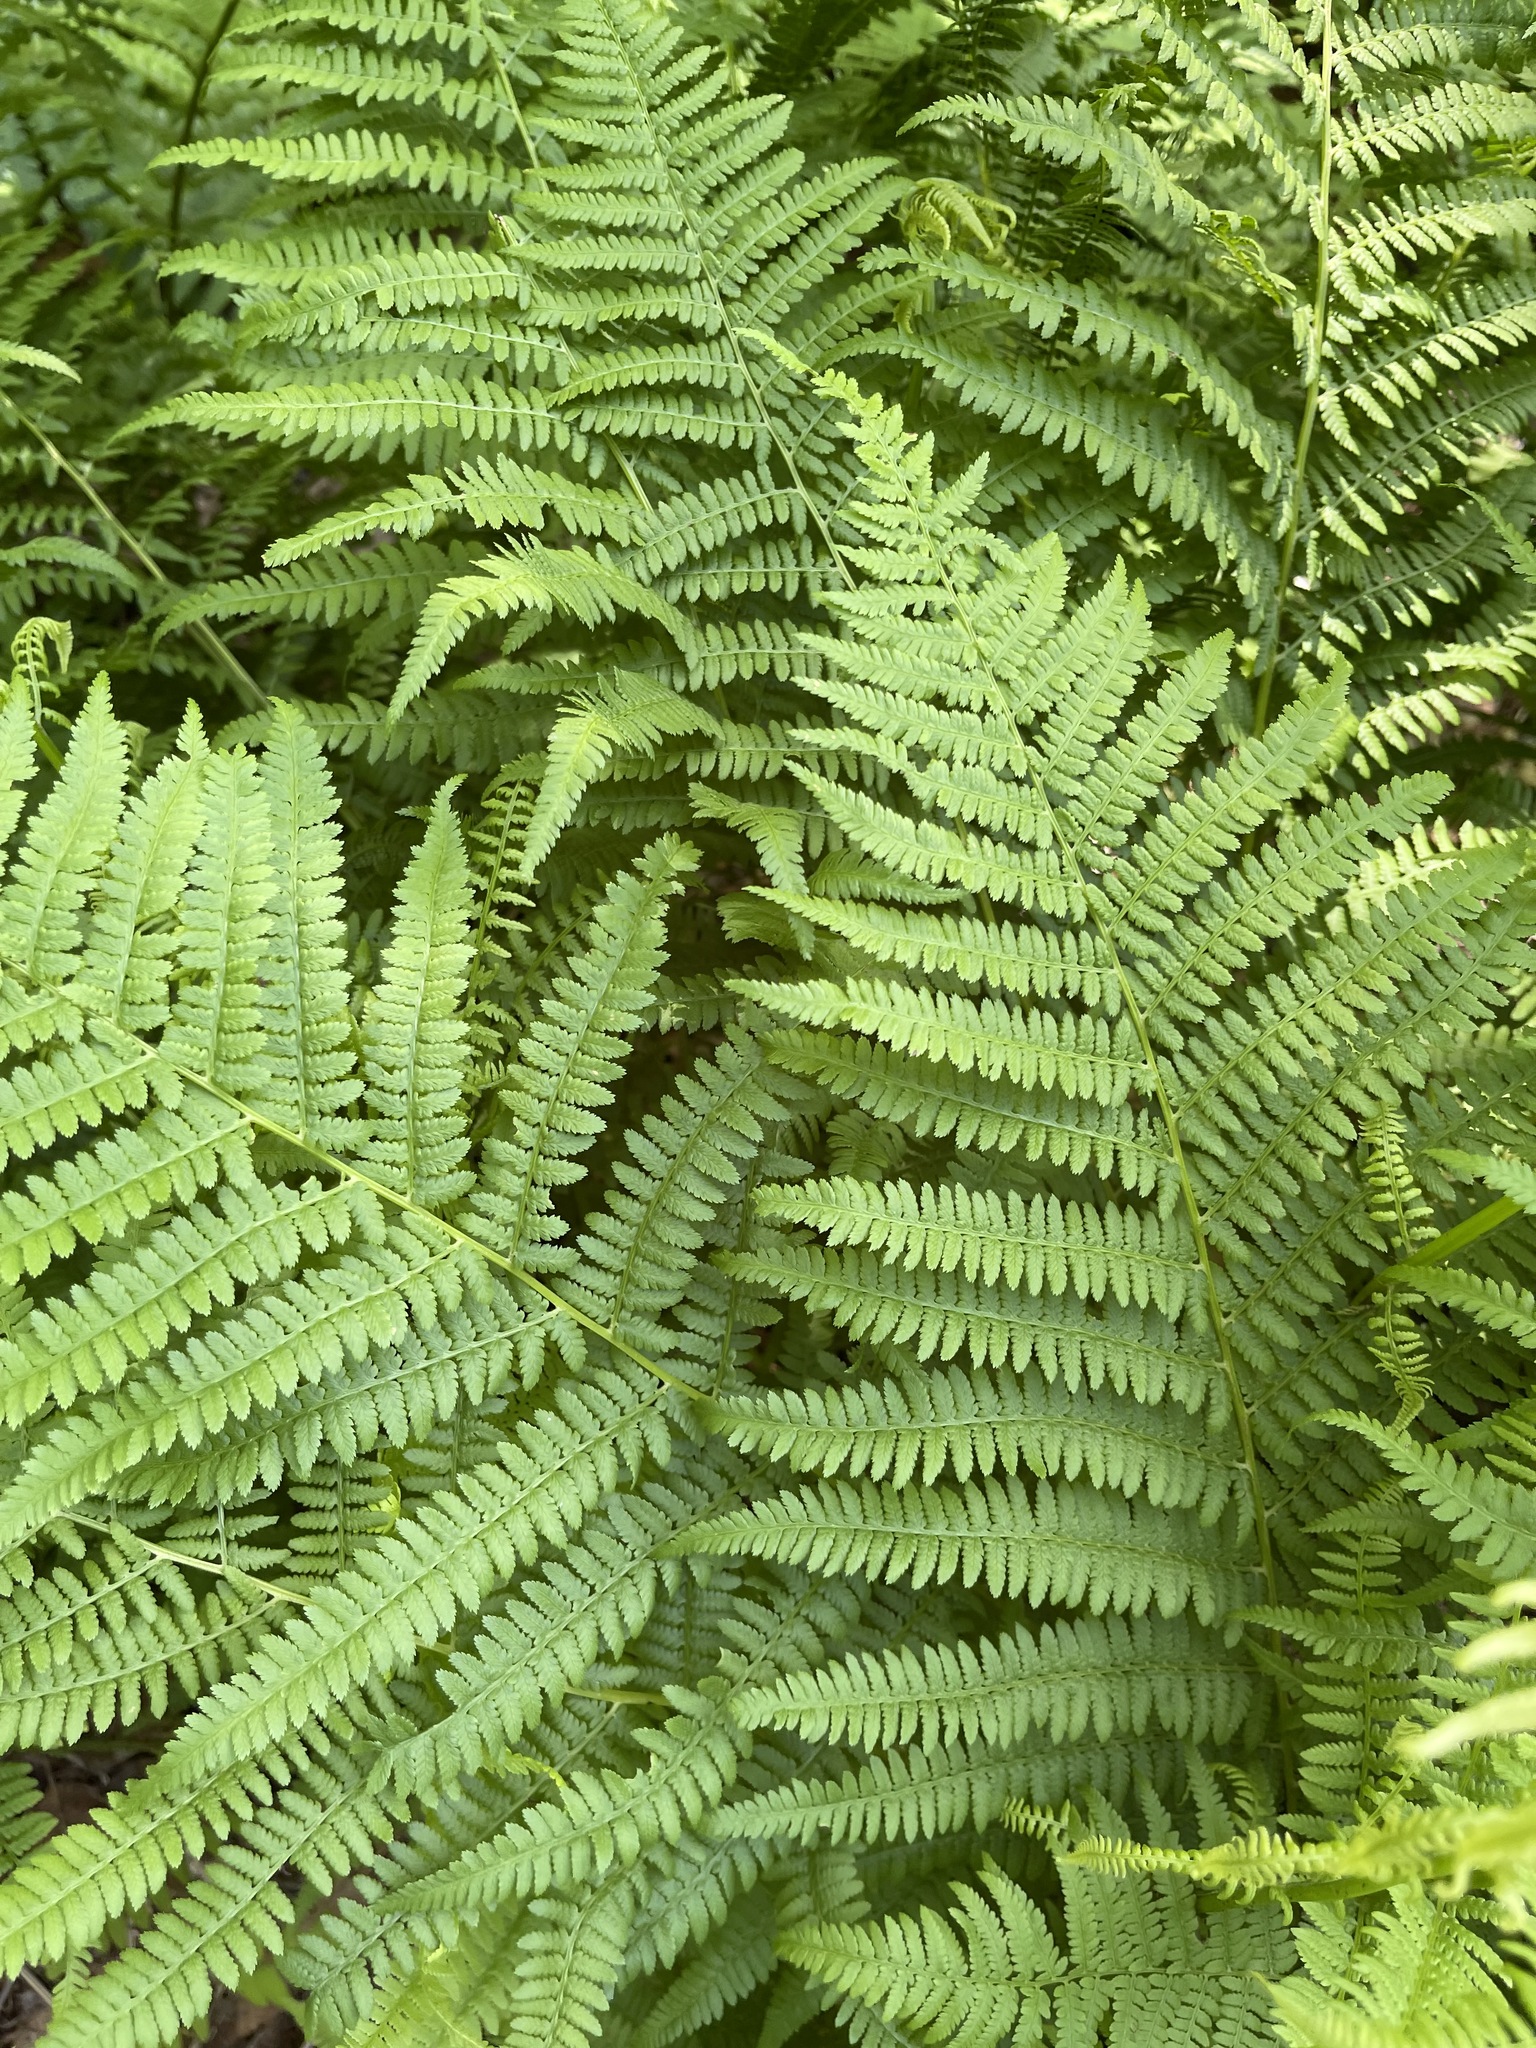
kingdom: Plantae
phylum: Tracheophyta
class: Polypodiopsida
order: Polypodiales
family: Athyriaceae
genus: Athyrium
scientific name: Athyrium angustum
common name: Northern lady fern
